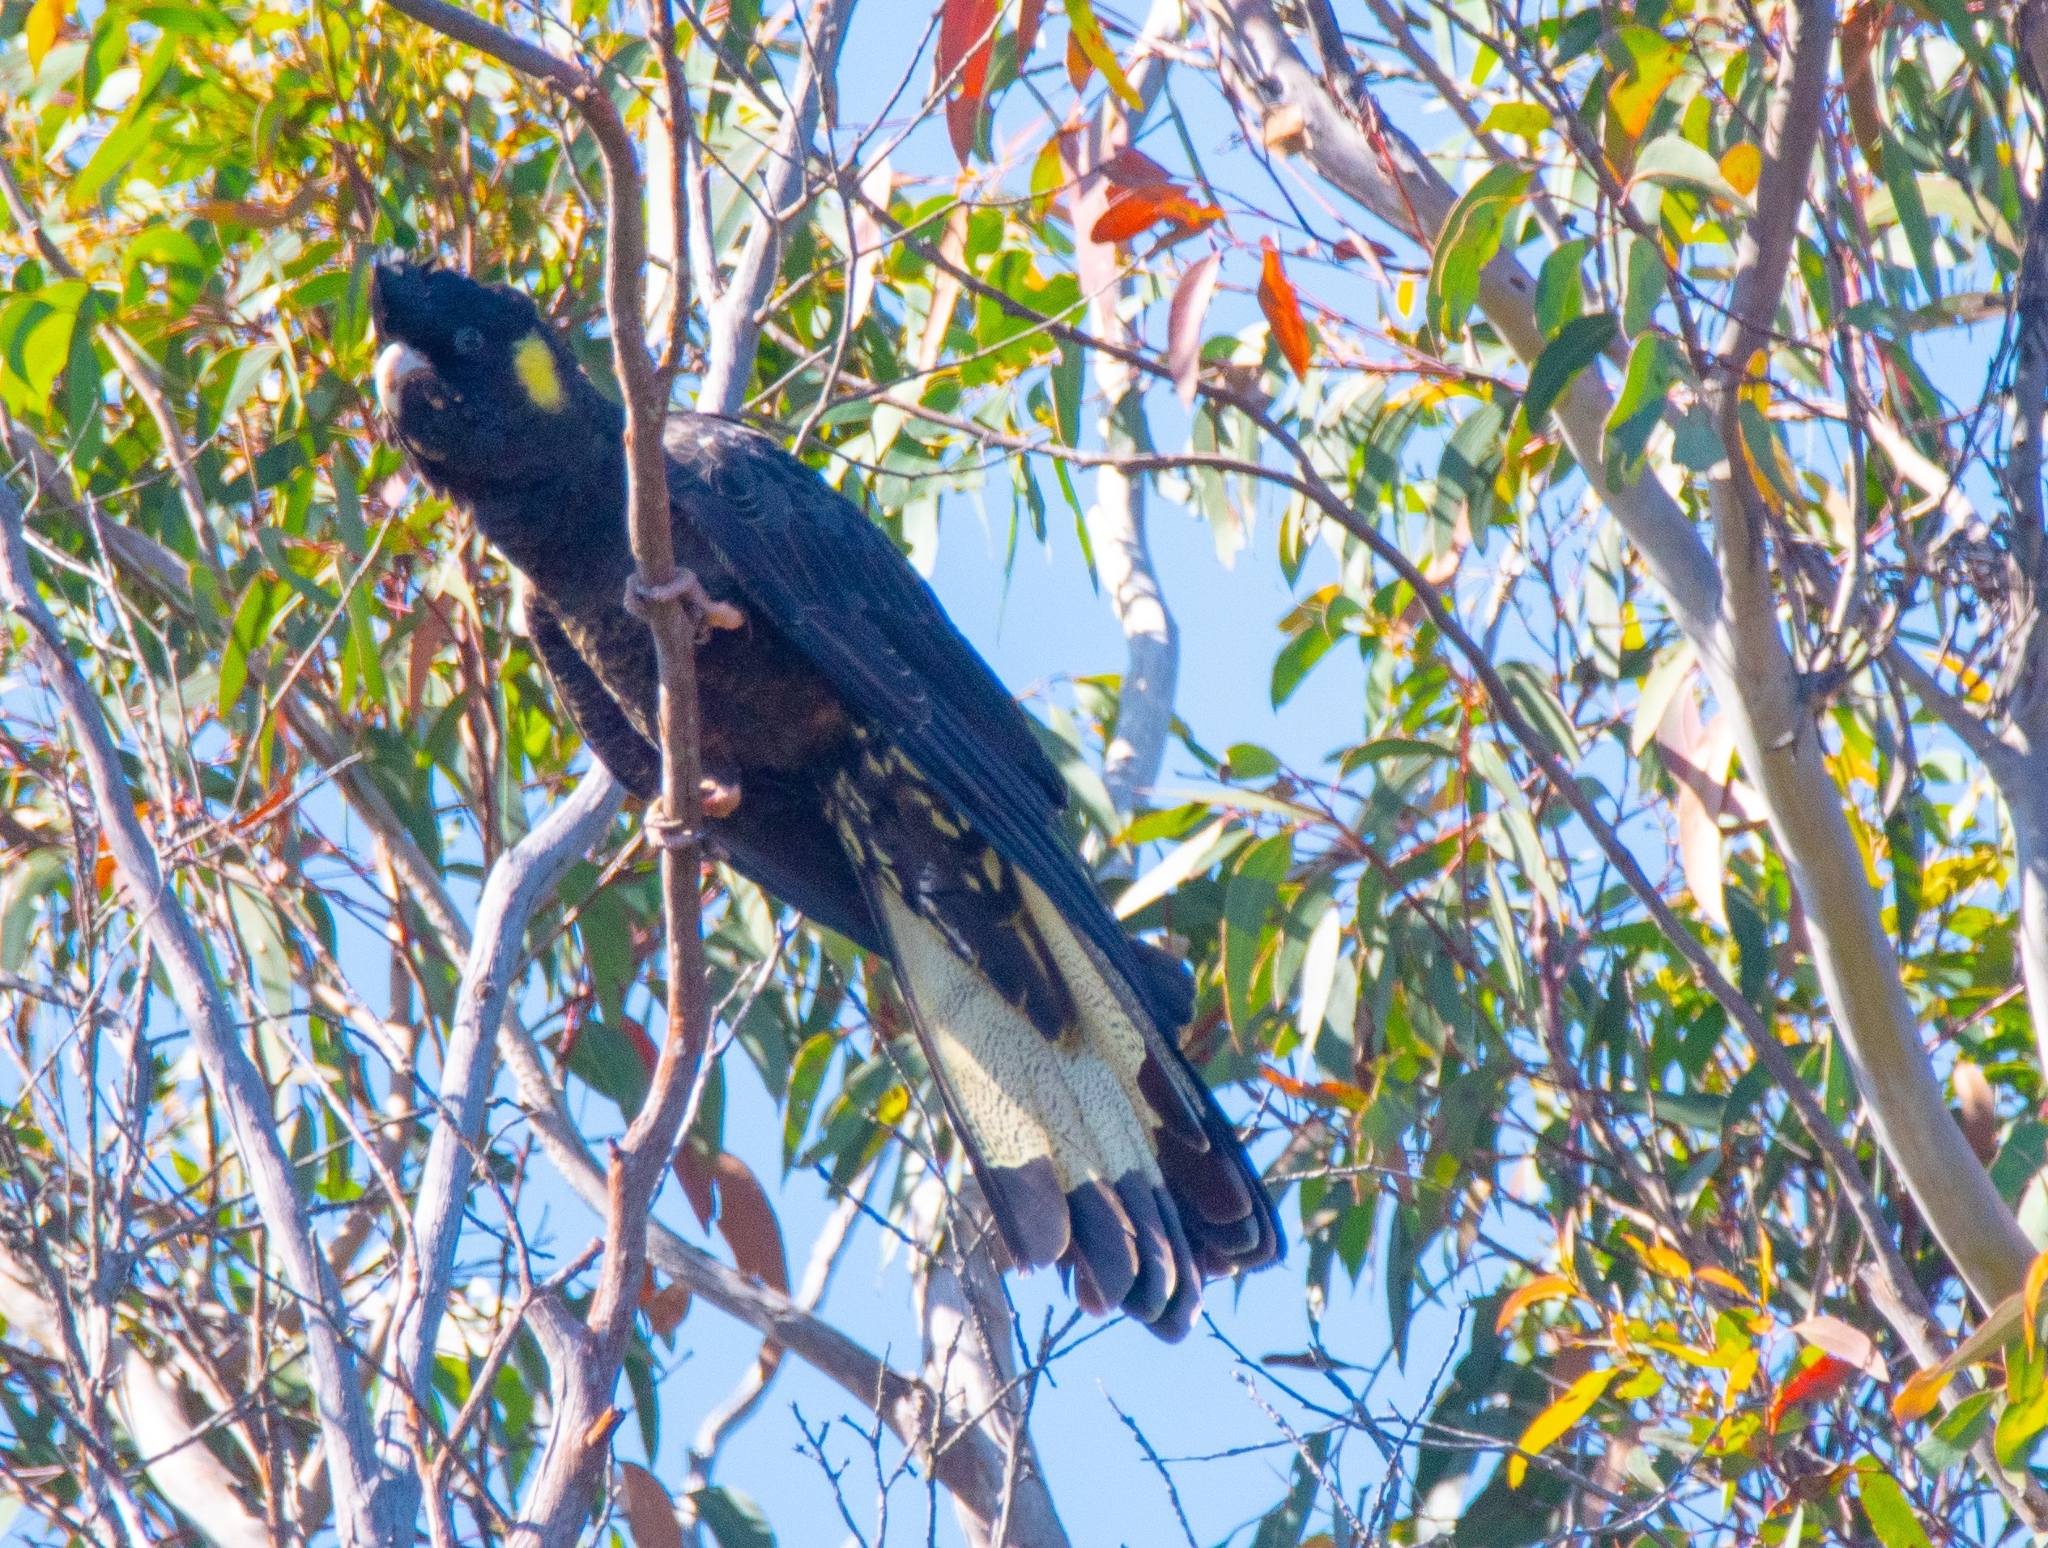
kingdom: Animalia
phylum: Chordata
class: Aves
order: Psittaciformes
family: Cacatuidae
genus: Zanda
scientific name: Zanda funerea
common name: Yellow-tailed black-cockatoo
